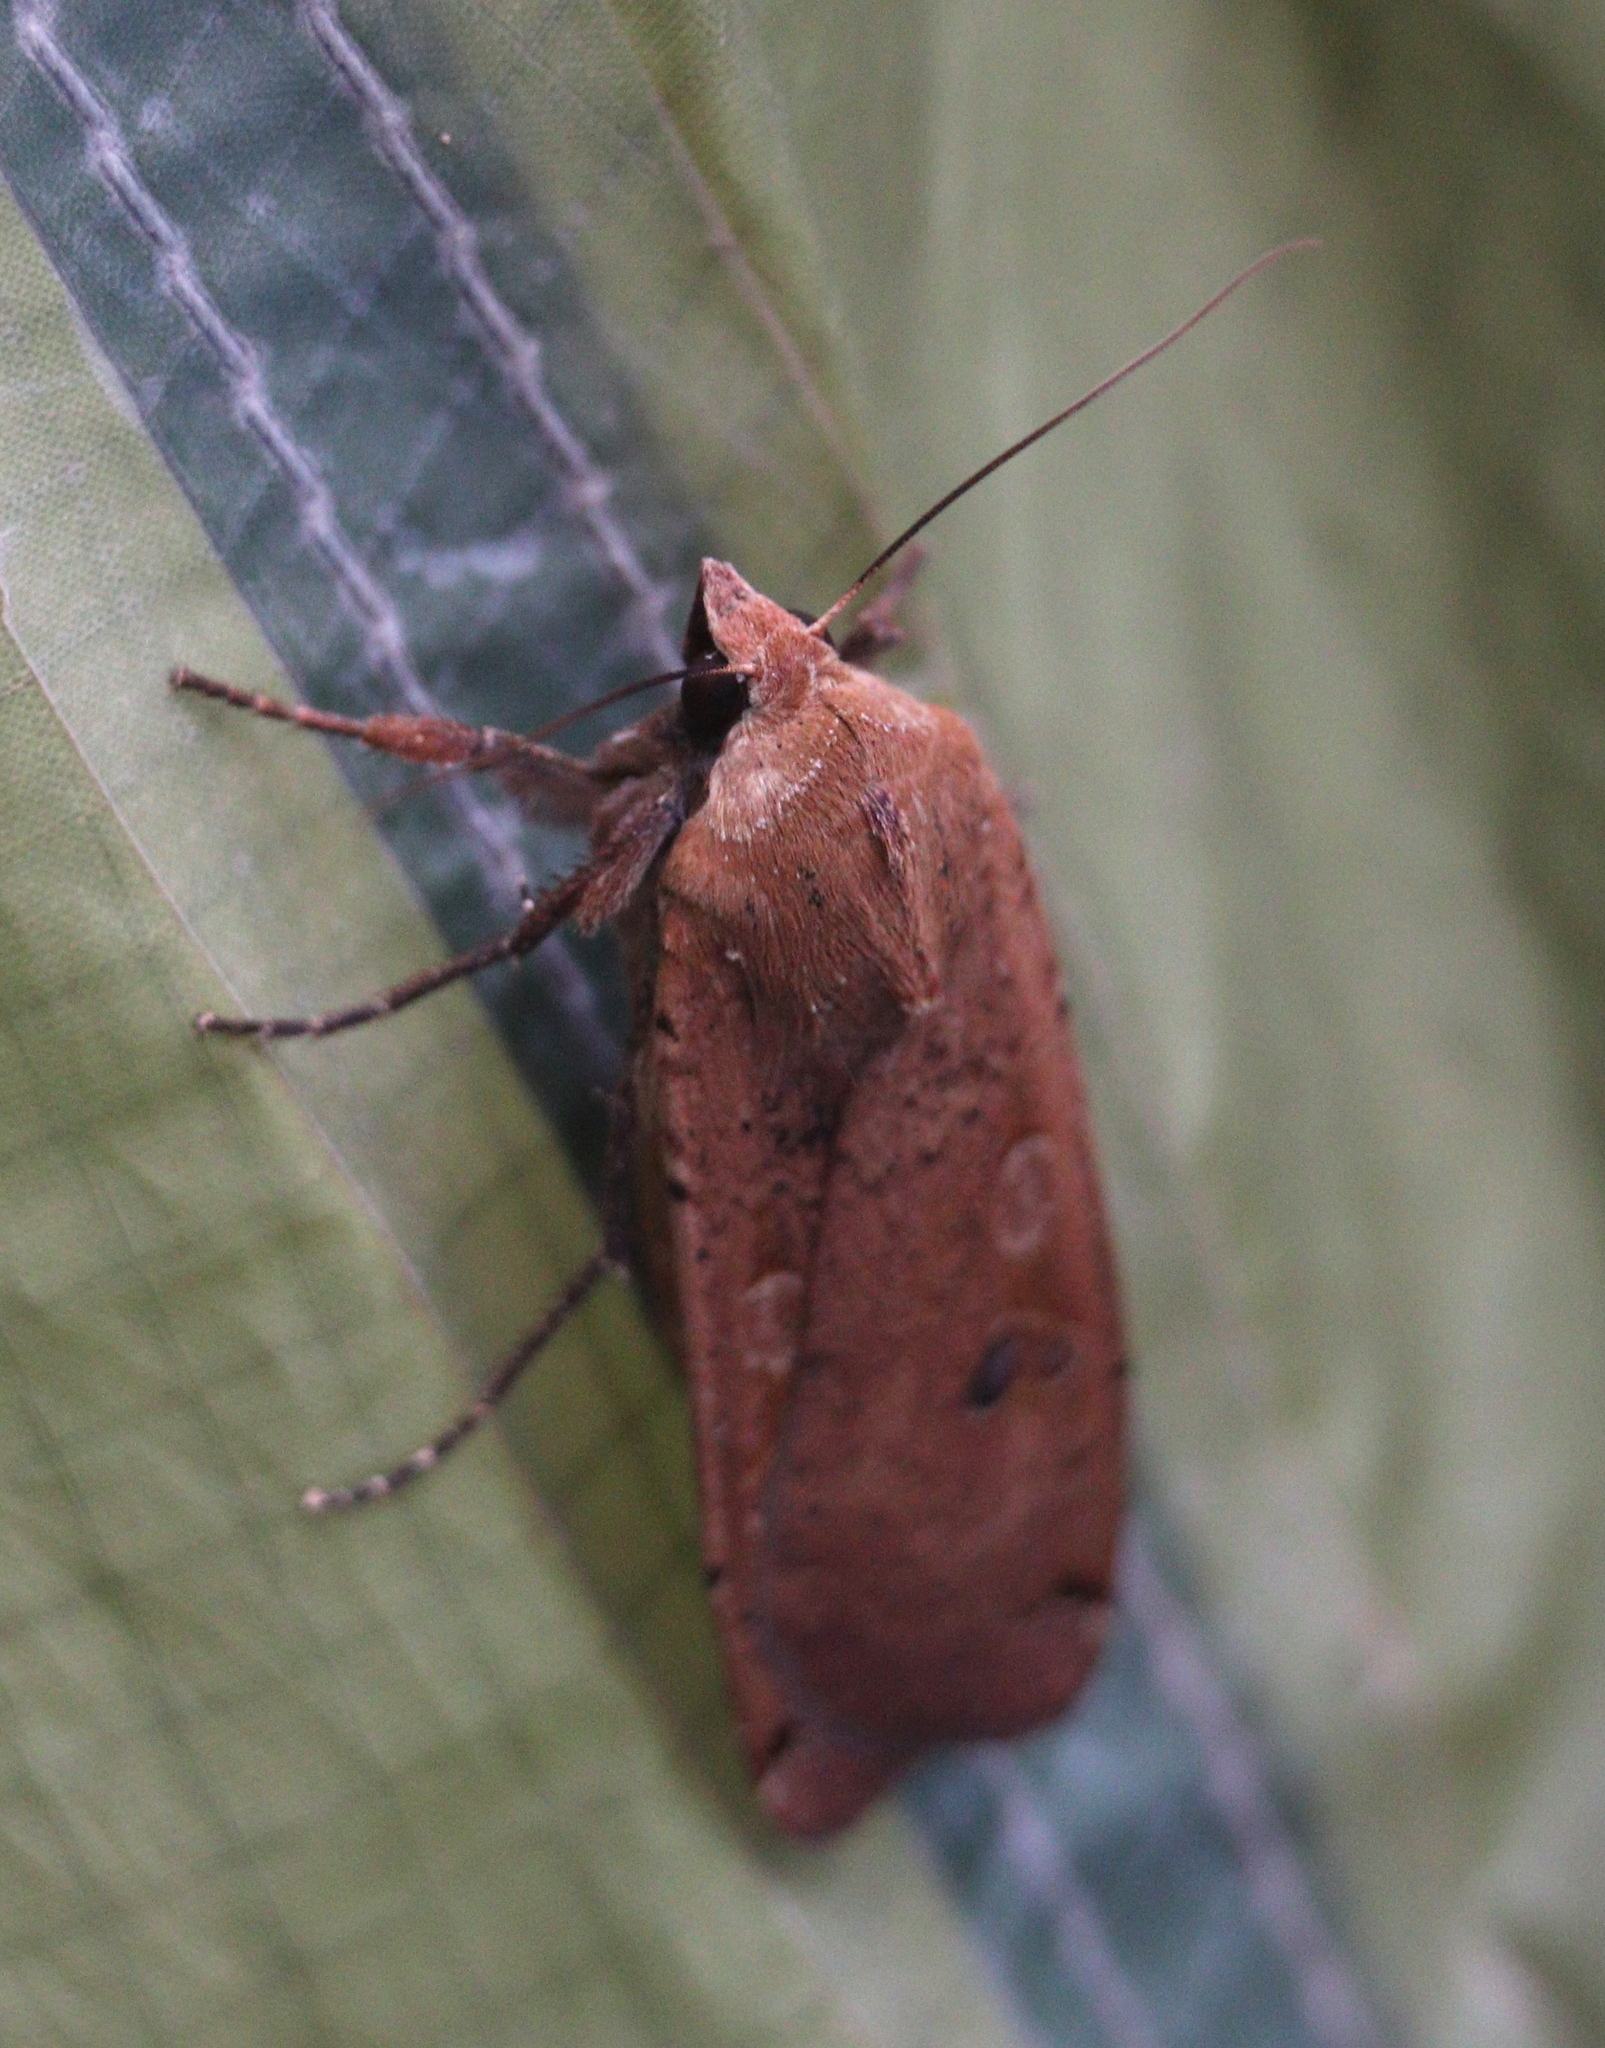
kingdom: Animalia
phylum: Arthropoda
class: Insecta
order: Lepidoptera
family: Noctuidae
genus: Noctua
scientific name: Noctua pronuba
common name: Large yellow underwing
